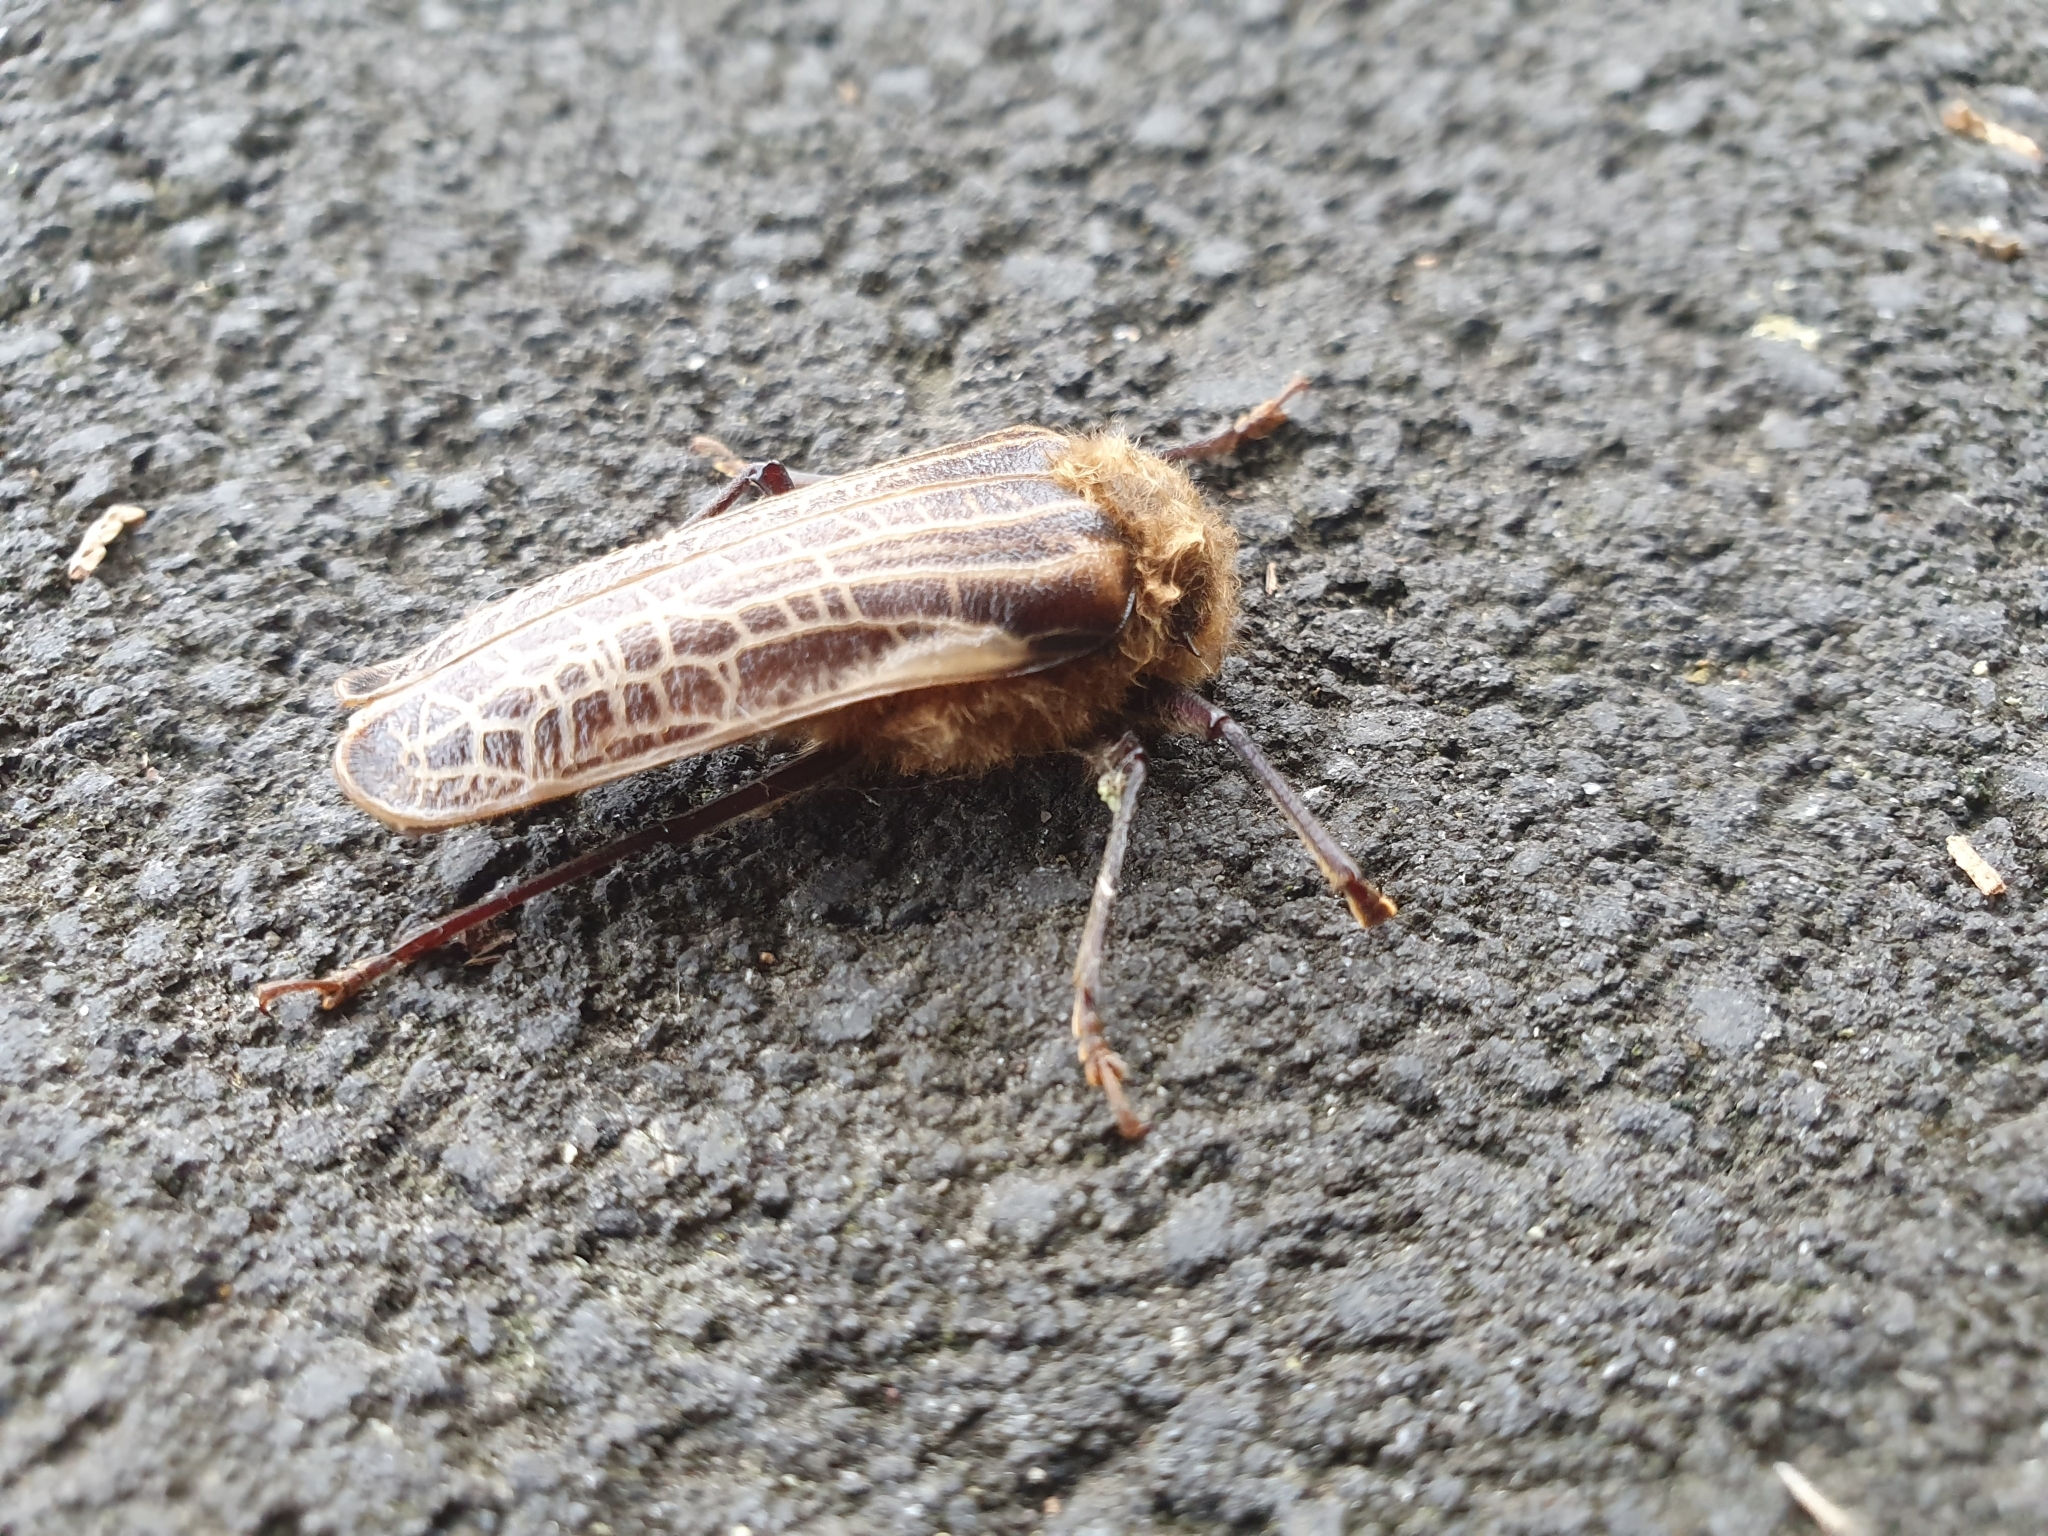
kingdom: Animalia
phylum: Arthropoda
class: Insecta
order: Coleoptera
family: Cerambycidae
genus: Prionoplus
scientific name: Prionoplus reticularis
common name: Huhu beetle
